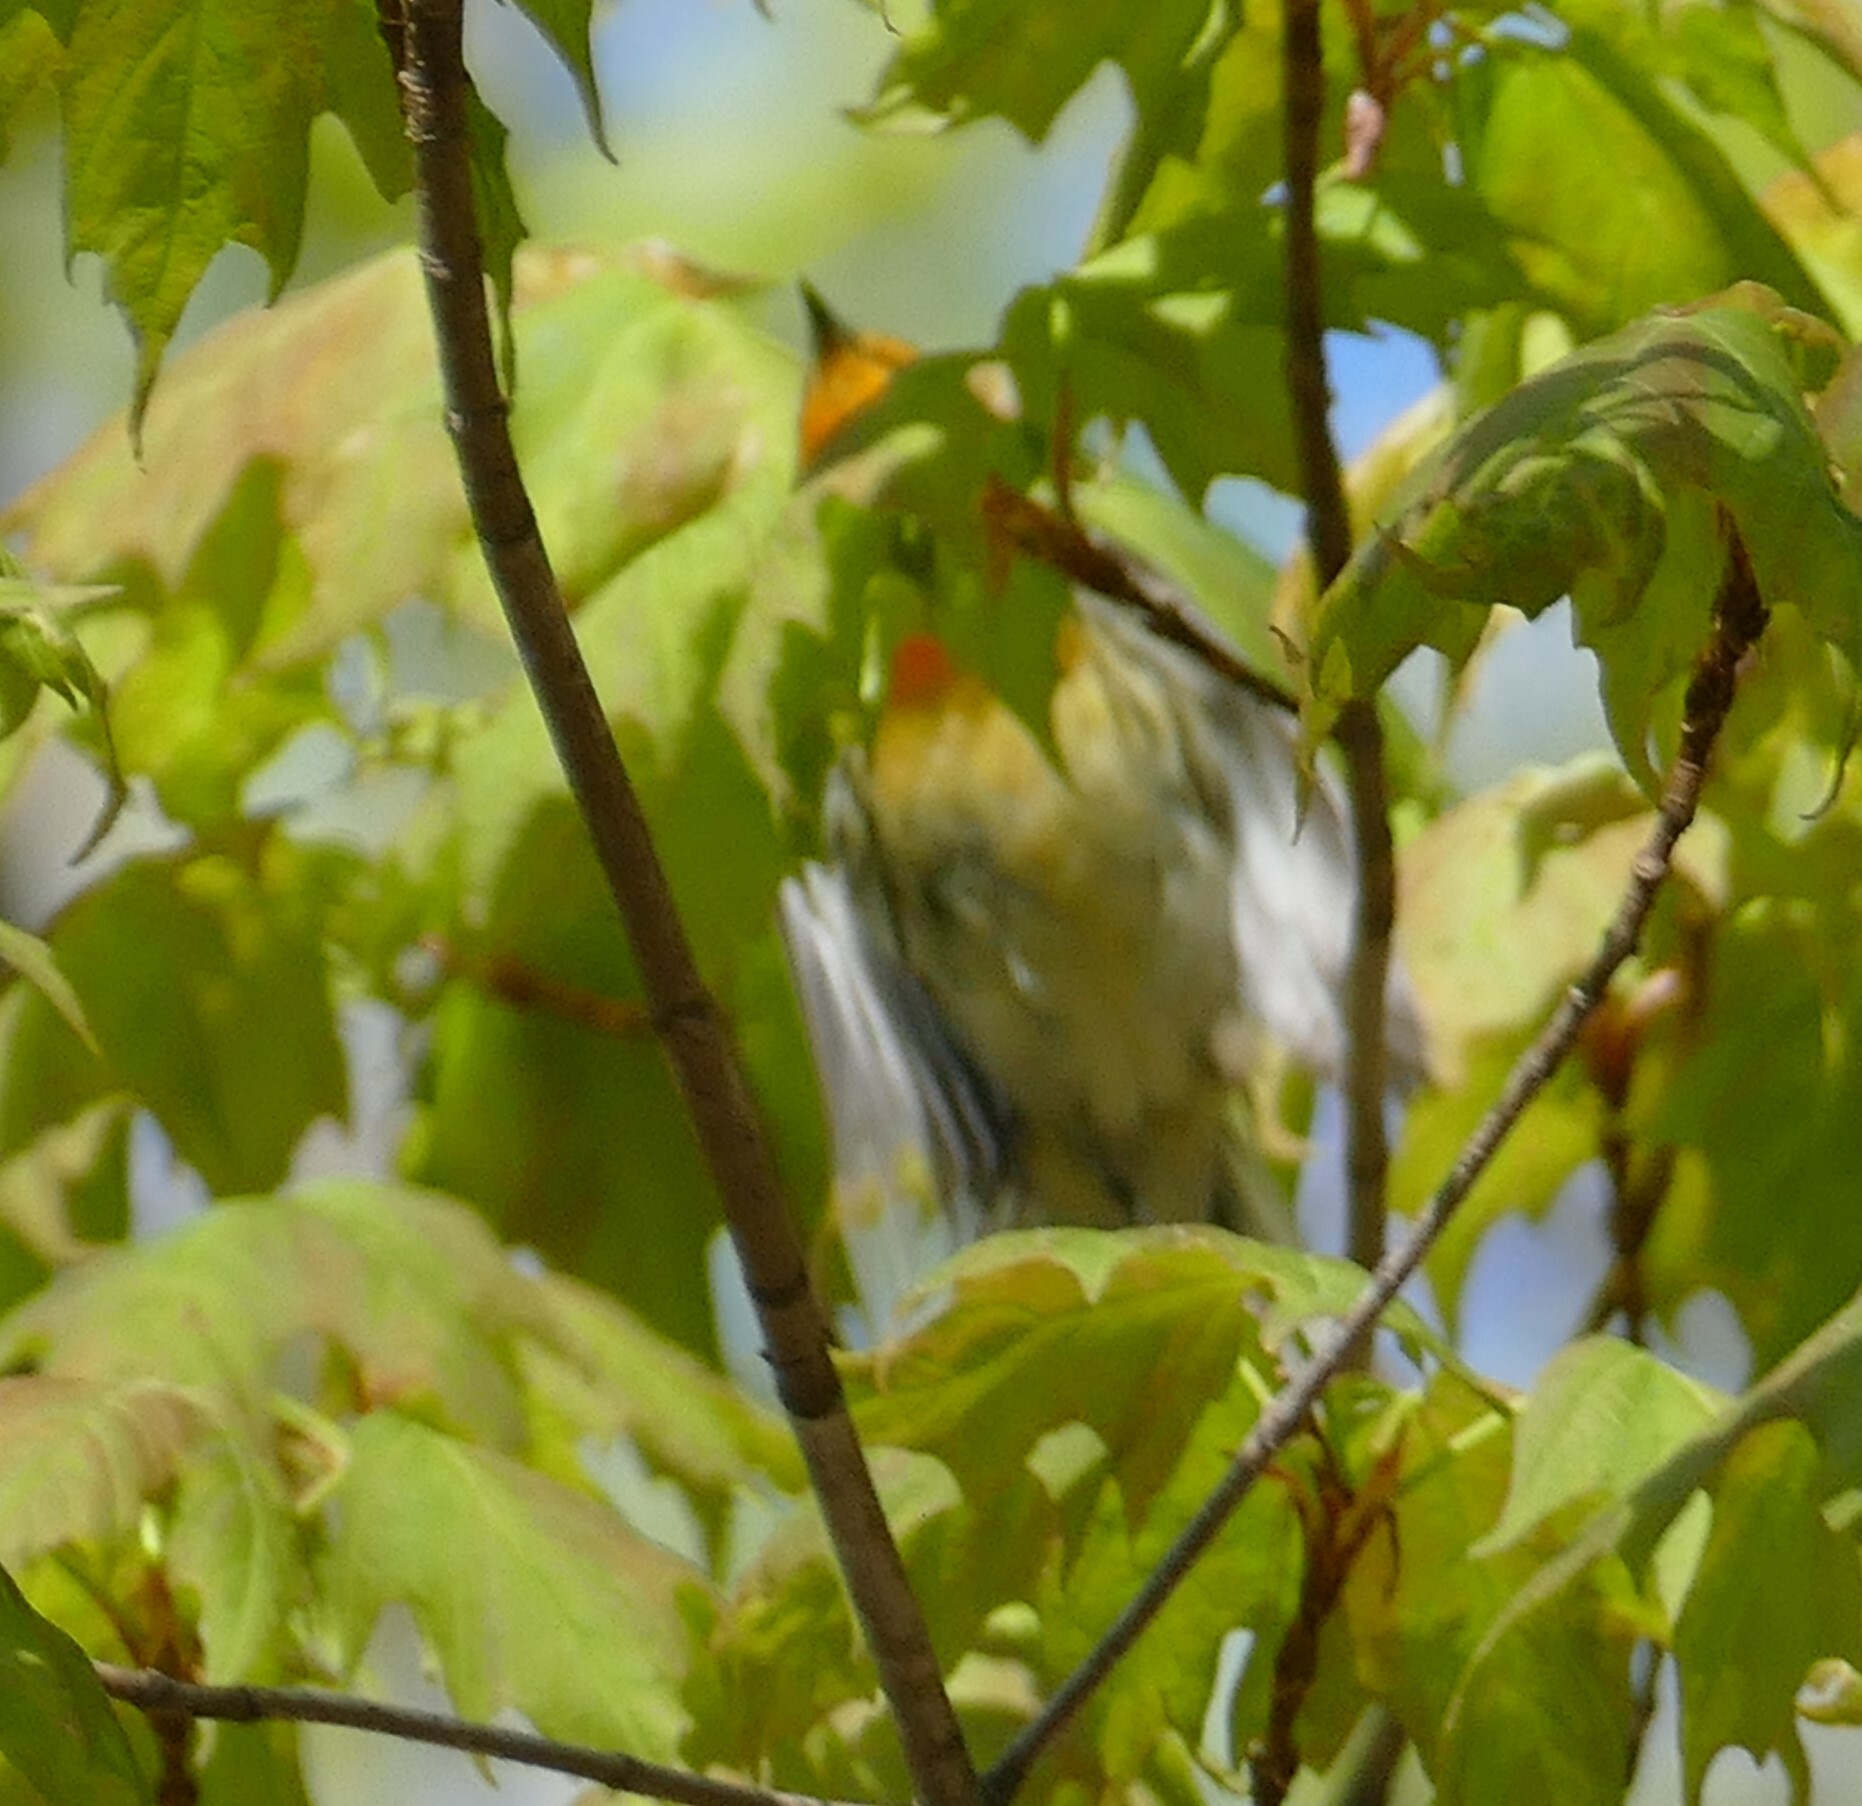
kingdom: Animalia
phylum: Chordata
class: Aves
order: Passeriformes
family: Parulidae
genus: Setophaga
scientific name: Setophaga fusca
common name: Blackburnian warbler
